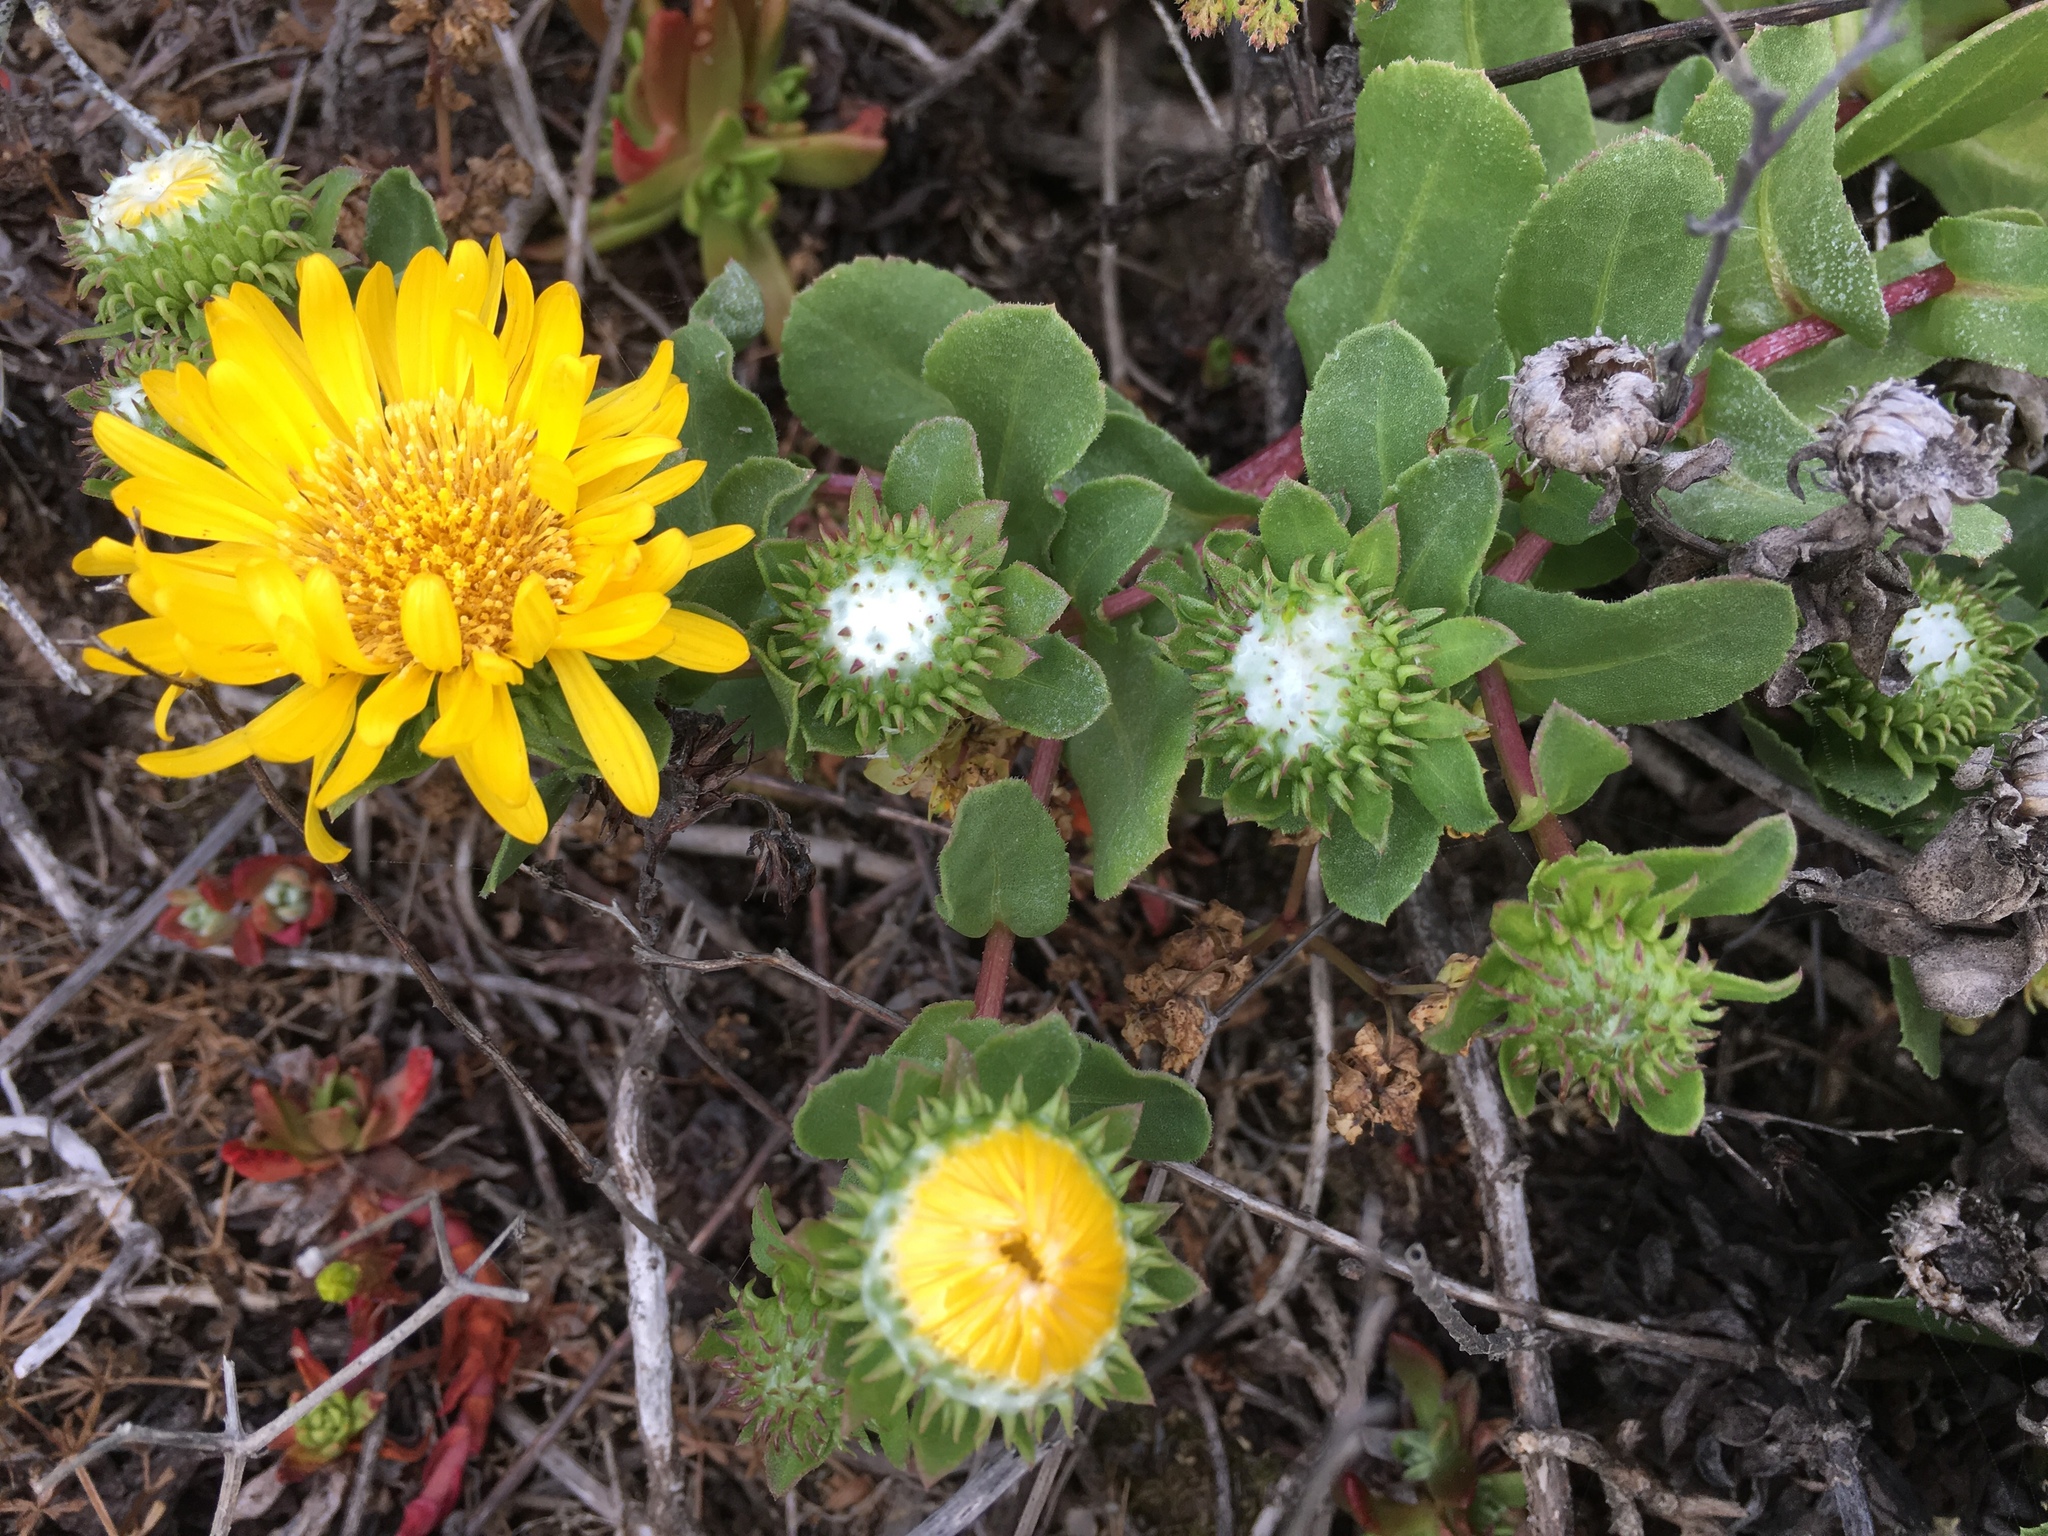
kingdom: Plantae
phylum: Tracheophyta
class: Magnoliopsida
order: Asterales
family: Asteraceae
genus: Grindelia
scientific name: Grindelia hirsutula
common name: Hairy gumweed
